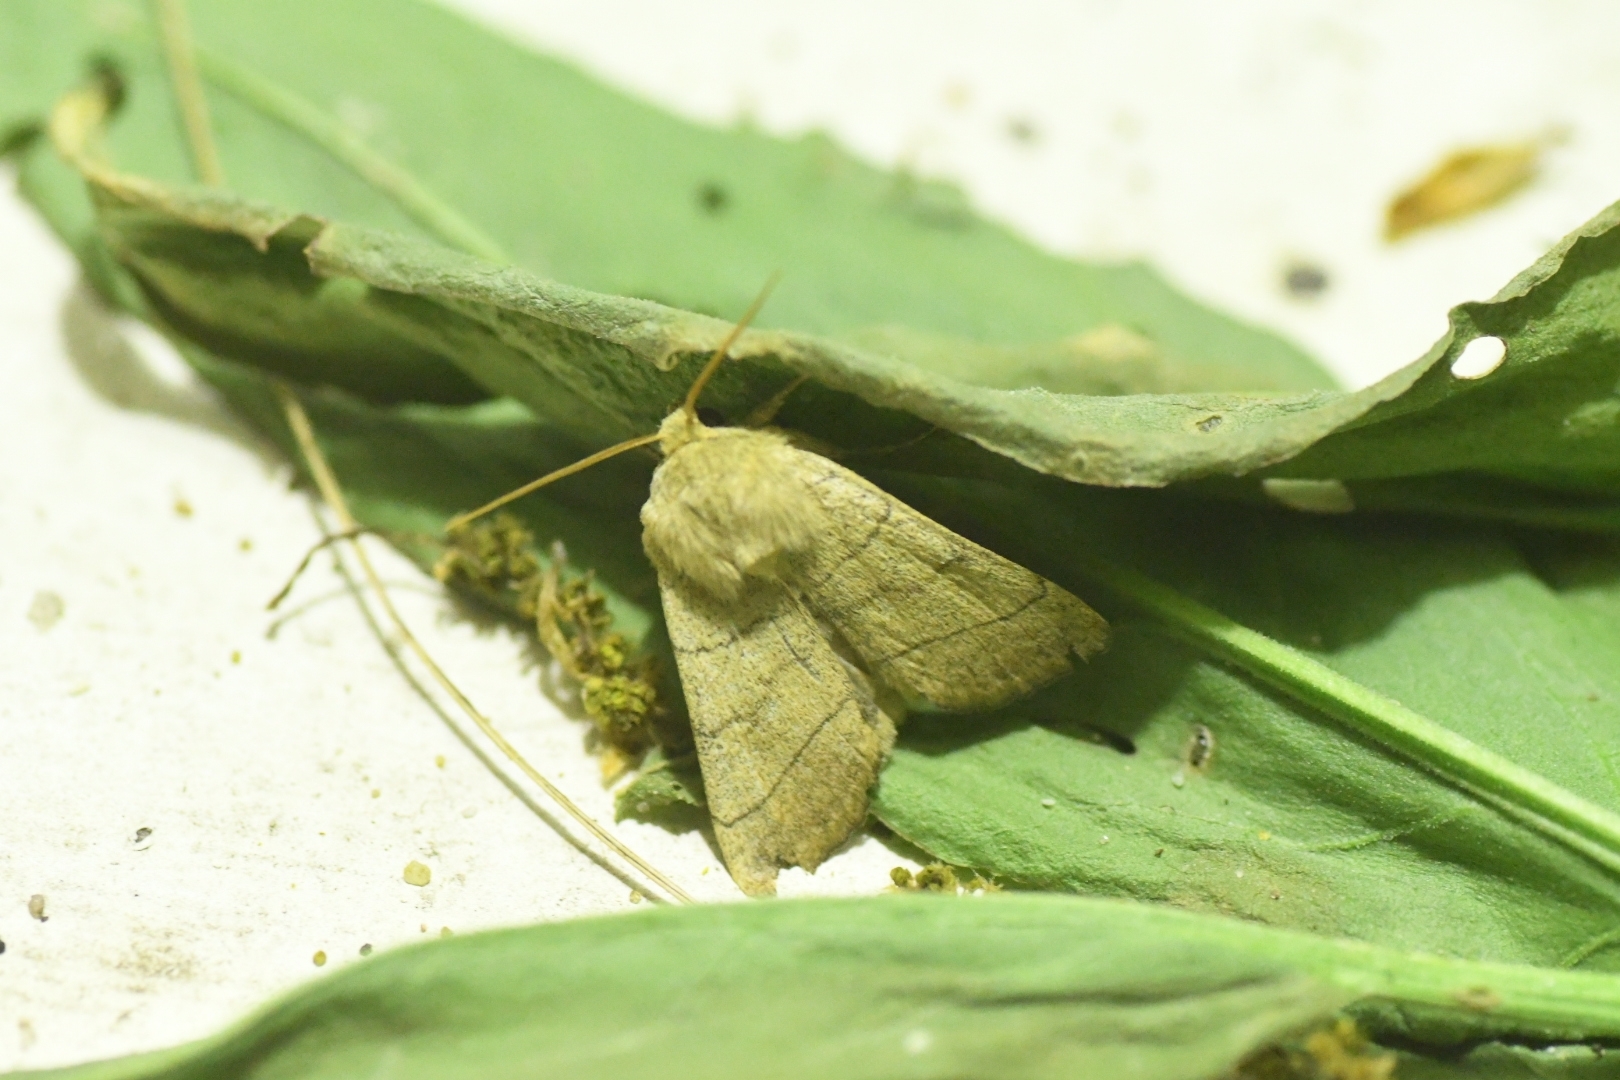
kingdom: Animalia
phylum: Arthropoda
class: Insecta
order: Lepidoptera
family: Noctuidae
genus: Charanyca
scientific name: Charanyca trigrammica
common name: Treble lines
